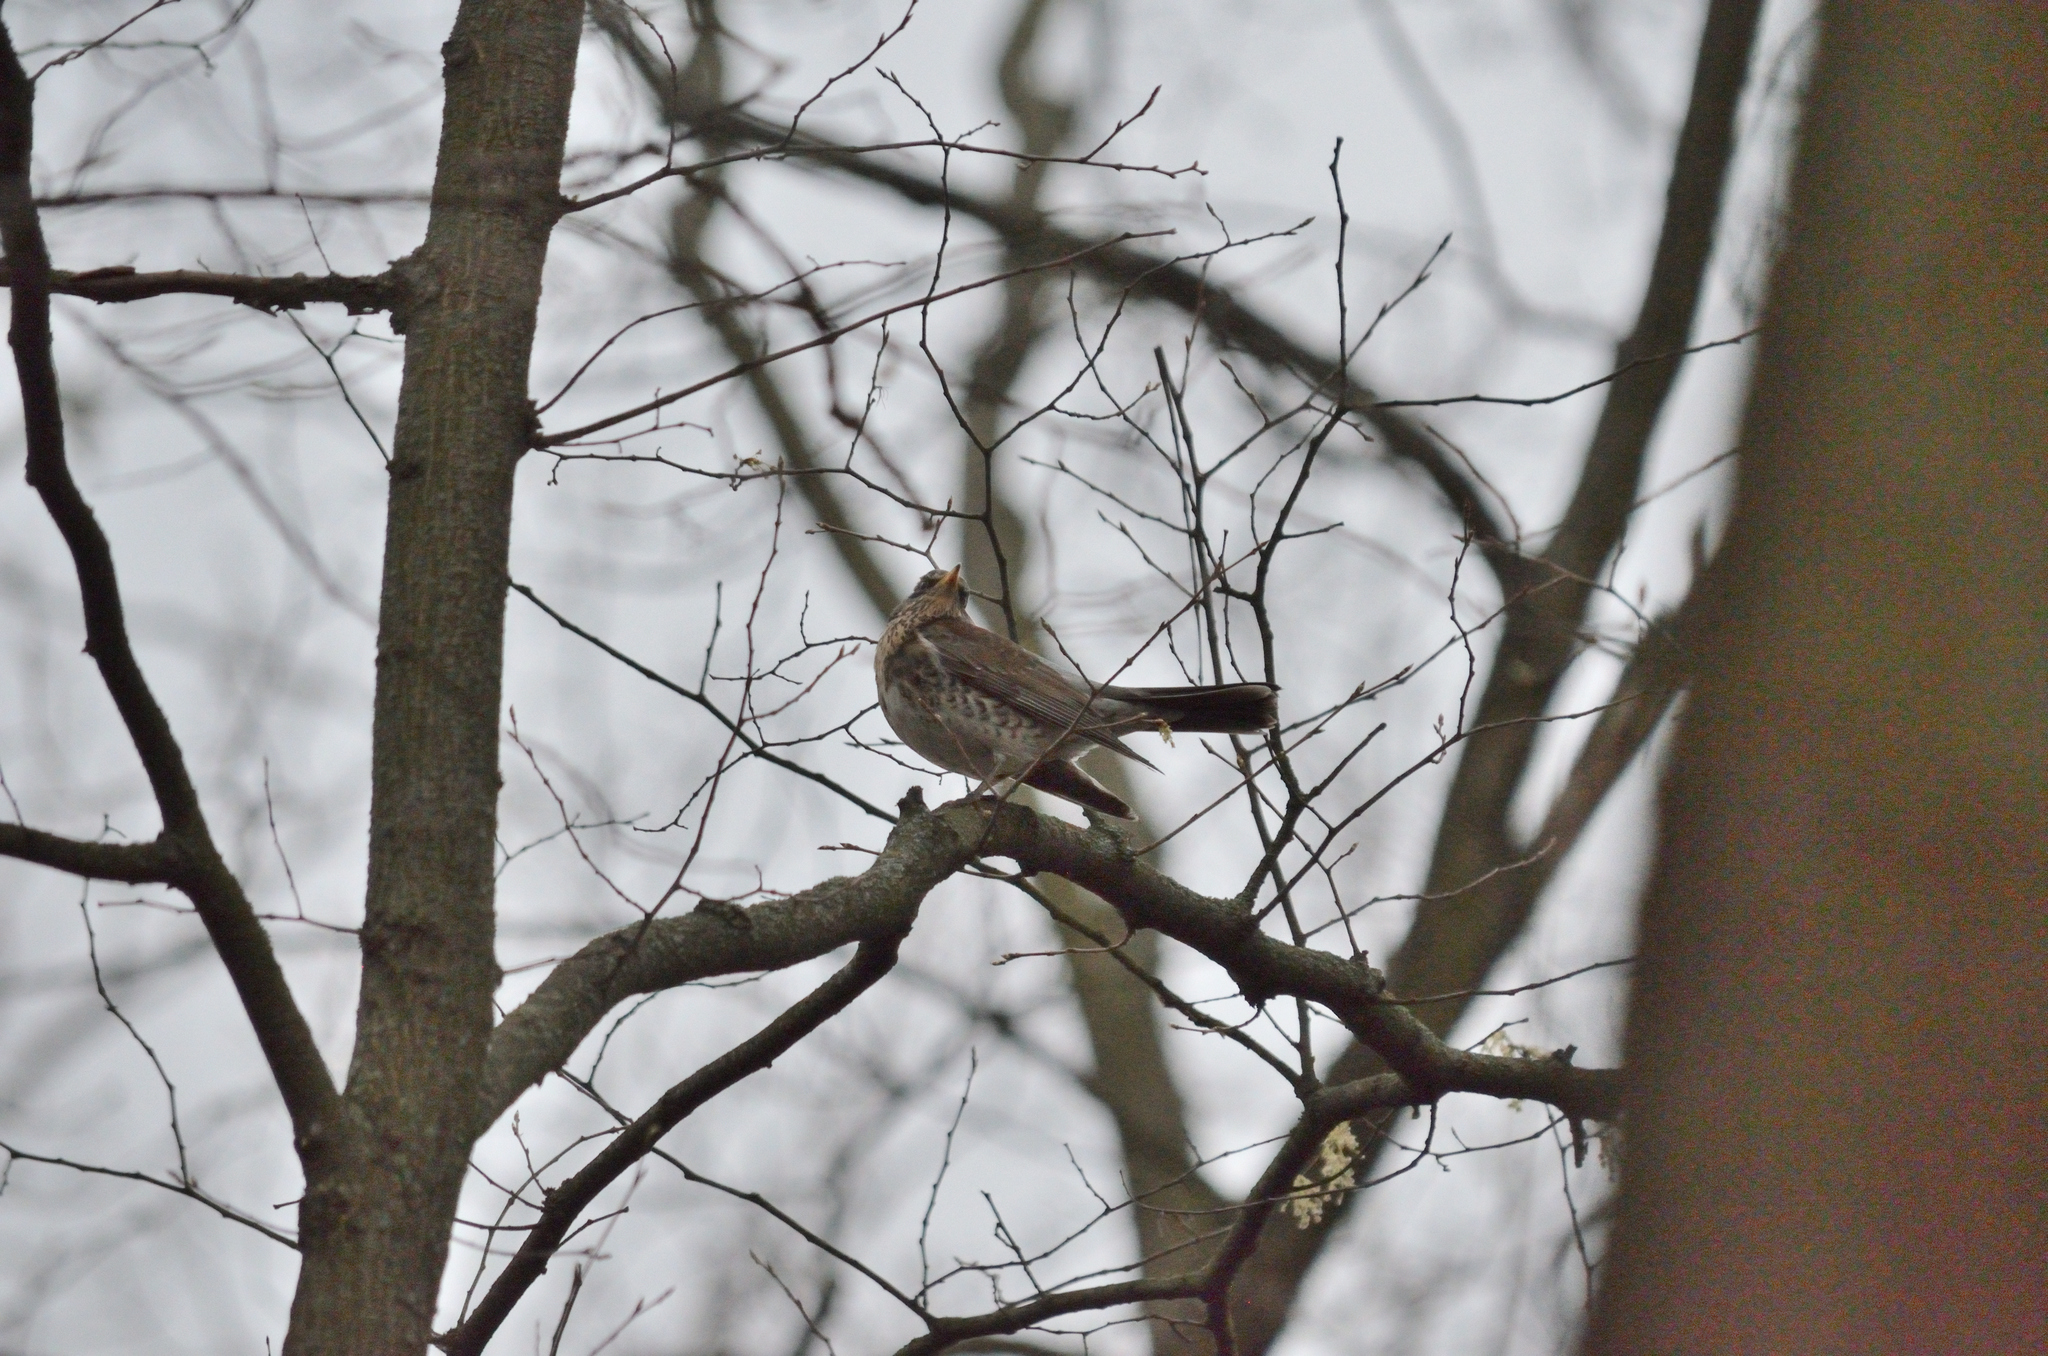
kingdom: Animalia
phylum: Chordata
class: Aves
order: Passeriformes
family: Turdidae
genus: Turdus
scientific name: Turdus pilaris
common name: Fieldfare
